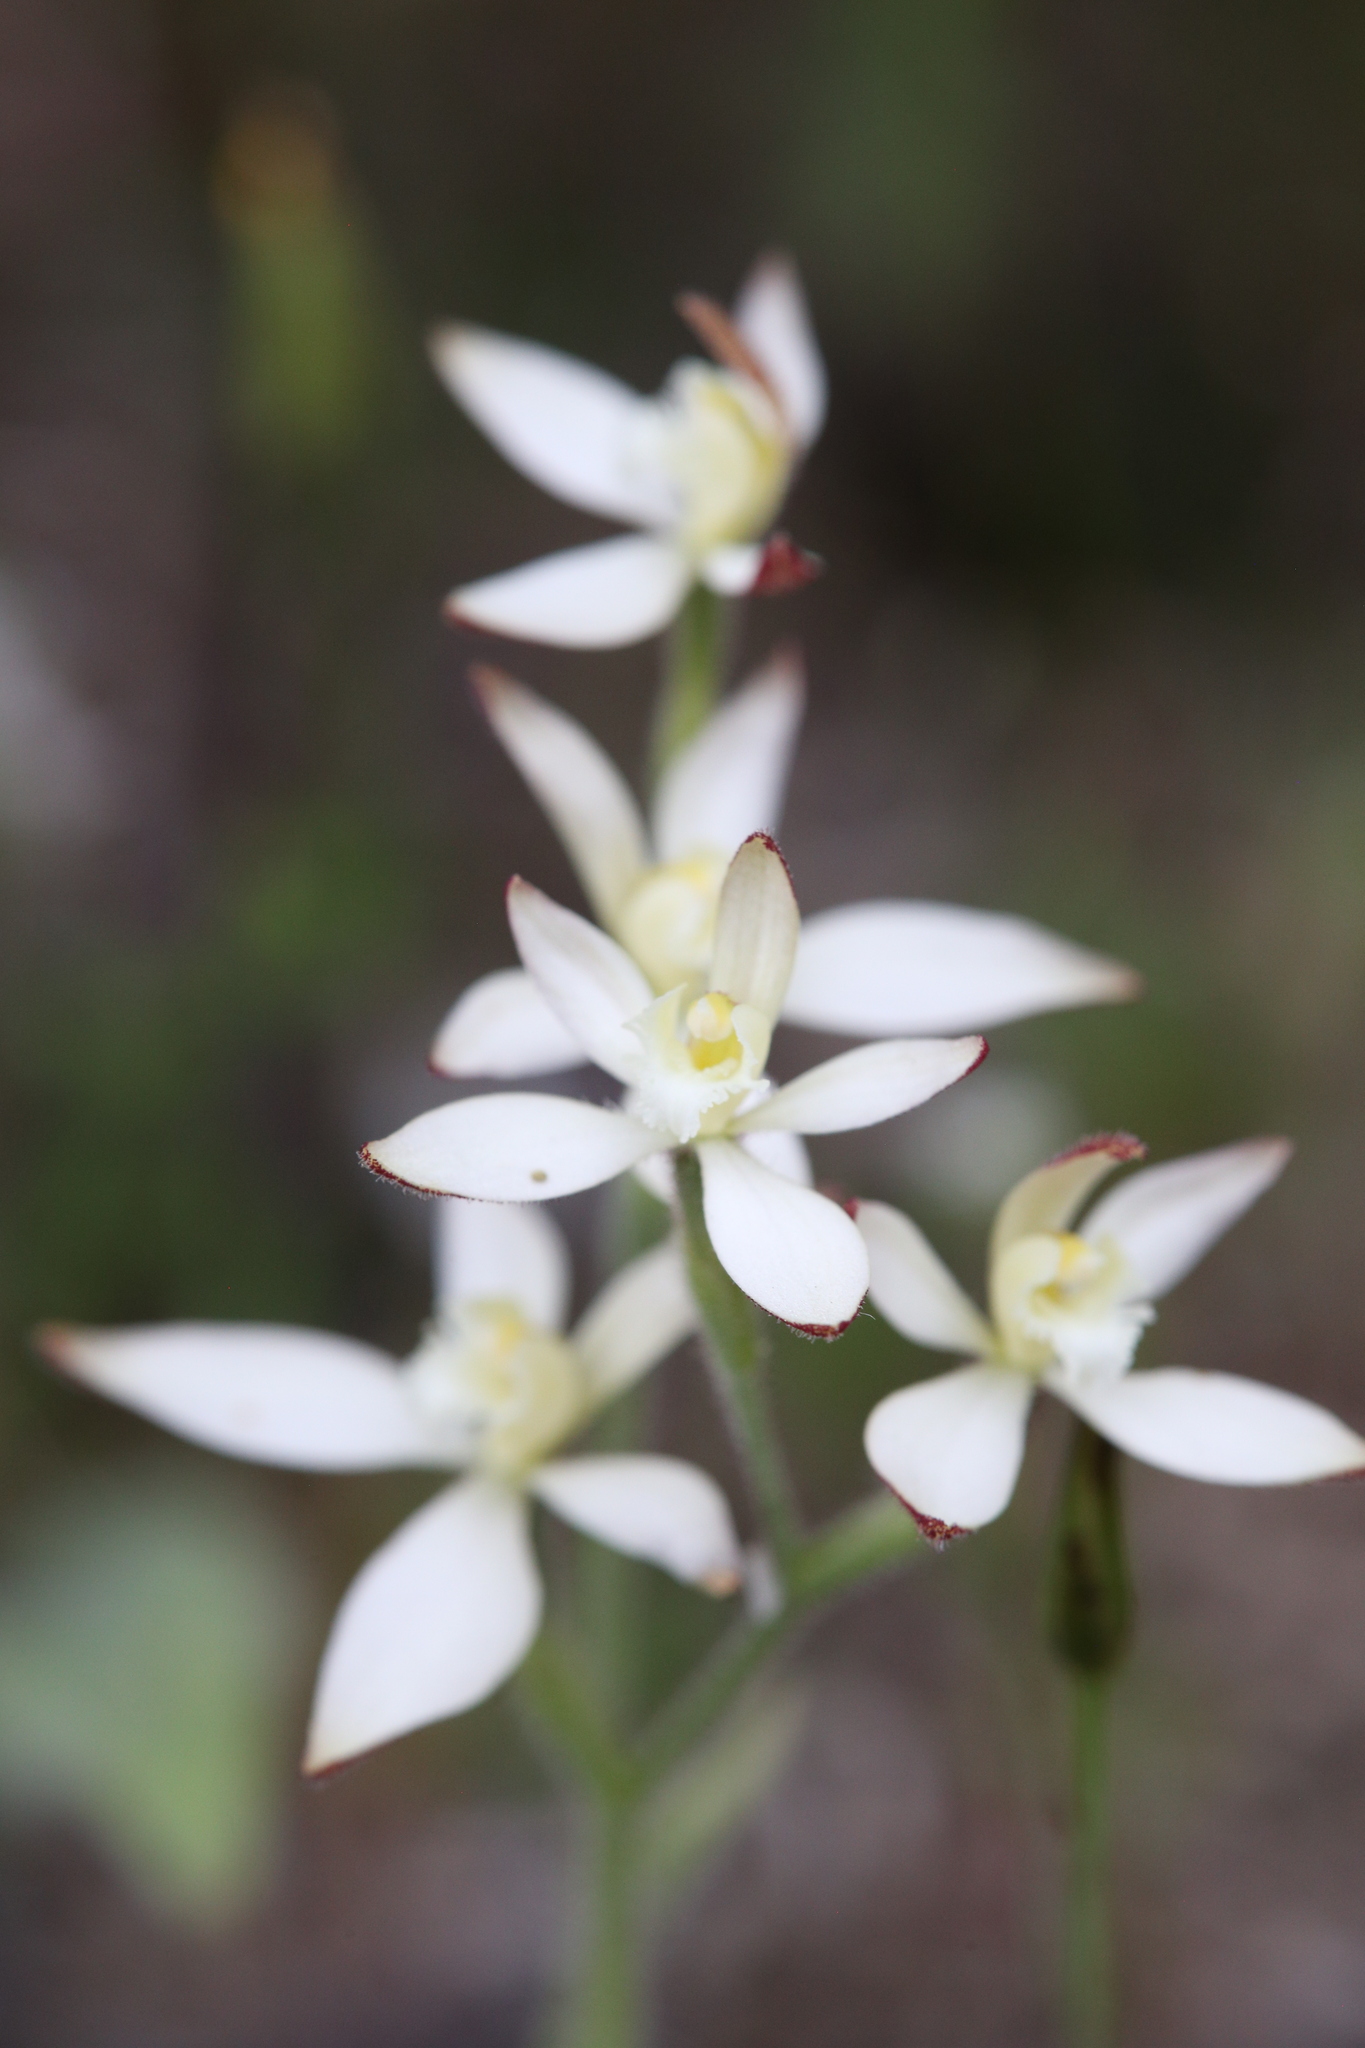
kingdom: Plantae
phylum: Tracheophyta
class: Liliopsida
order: Asparagales
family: Orchidaceae
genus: Caladenia
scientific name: Caladenia marginata
